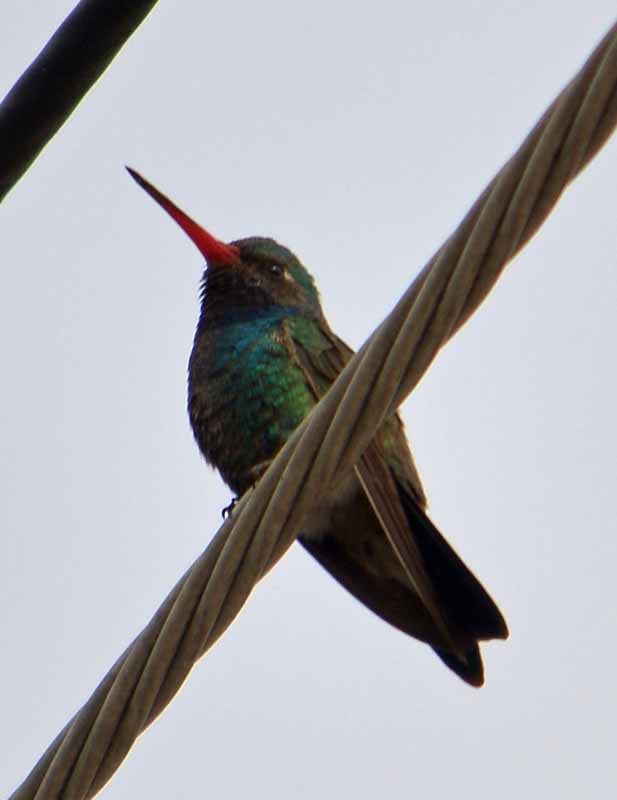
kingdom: Animalia
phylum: Chordata
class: Aves
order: Apodiformes
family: Trochilidae
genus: Cynanthus
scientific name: Cynanthus latirostris
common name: Broad-billed hummingbird
